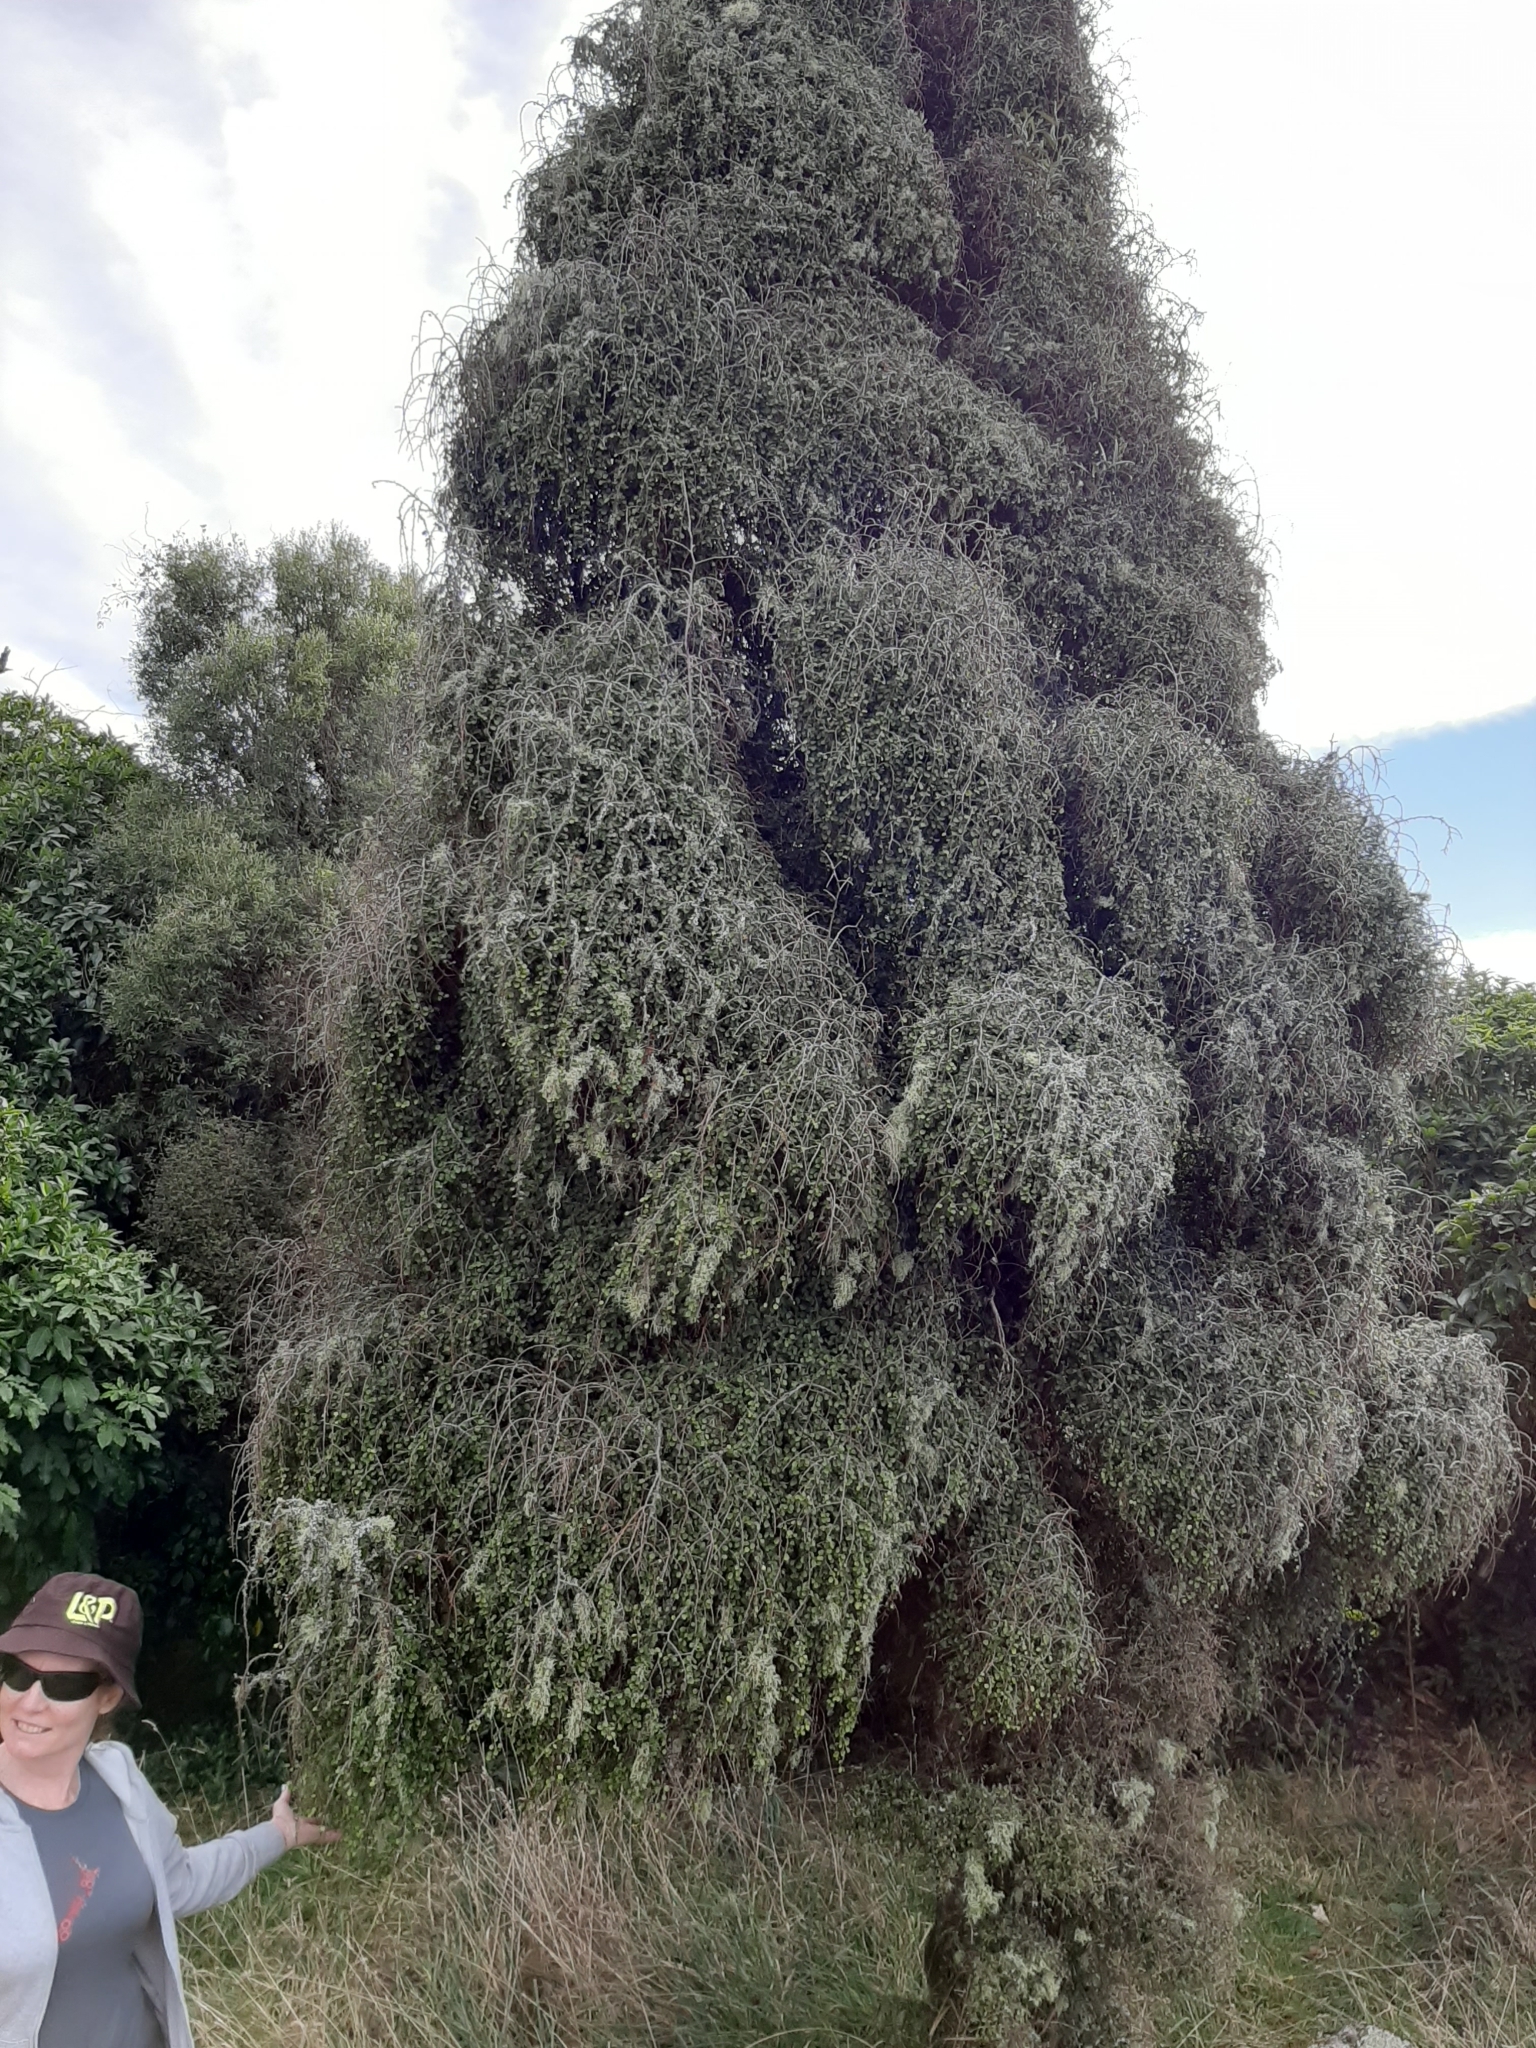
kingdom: Plantae
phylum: Tracheophyta
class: Magnoliopsida
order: Ericales
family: Primulaceae
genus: Myrsine
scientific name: Myrsine divaricata
